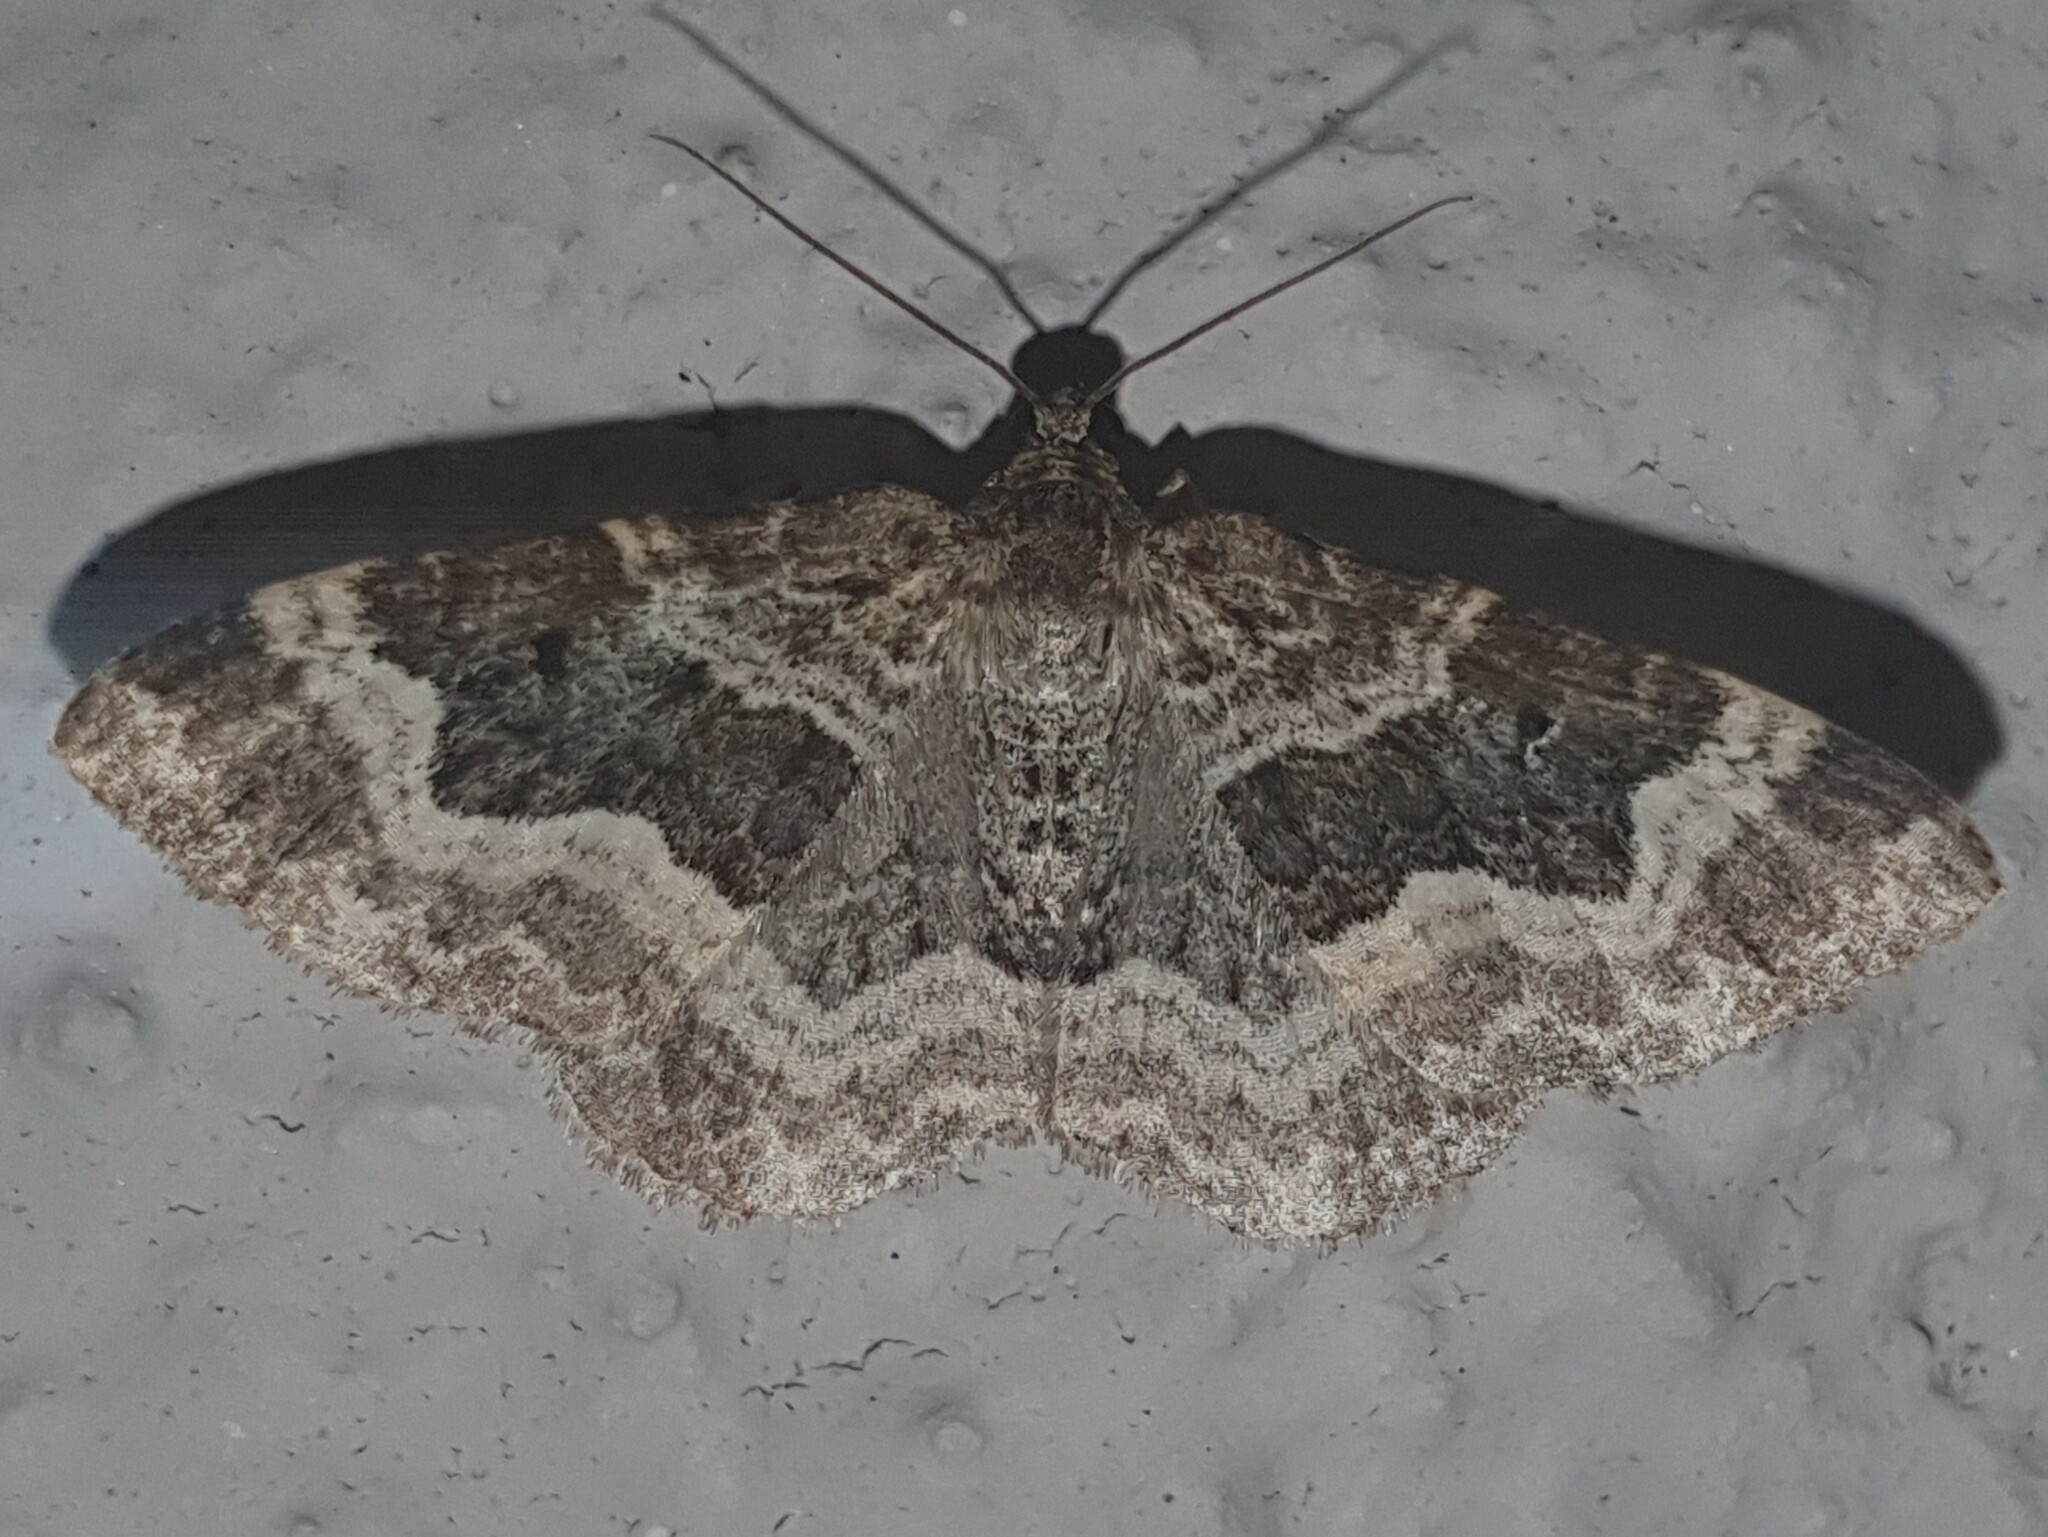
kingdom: Animalia
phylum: Arthropoda
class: Insecta
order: Lepidoptera
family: Geometridae
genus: Epirrhoe
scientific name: Epirrhoe alternata
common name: Common carpet
